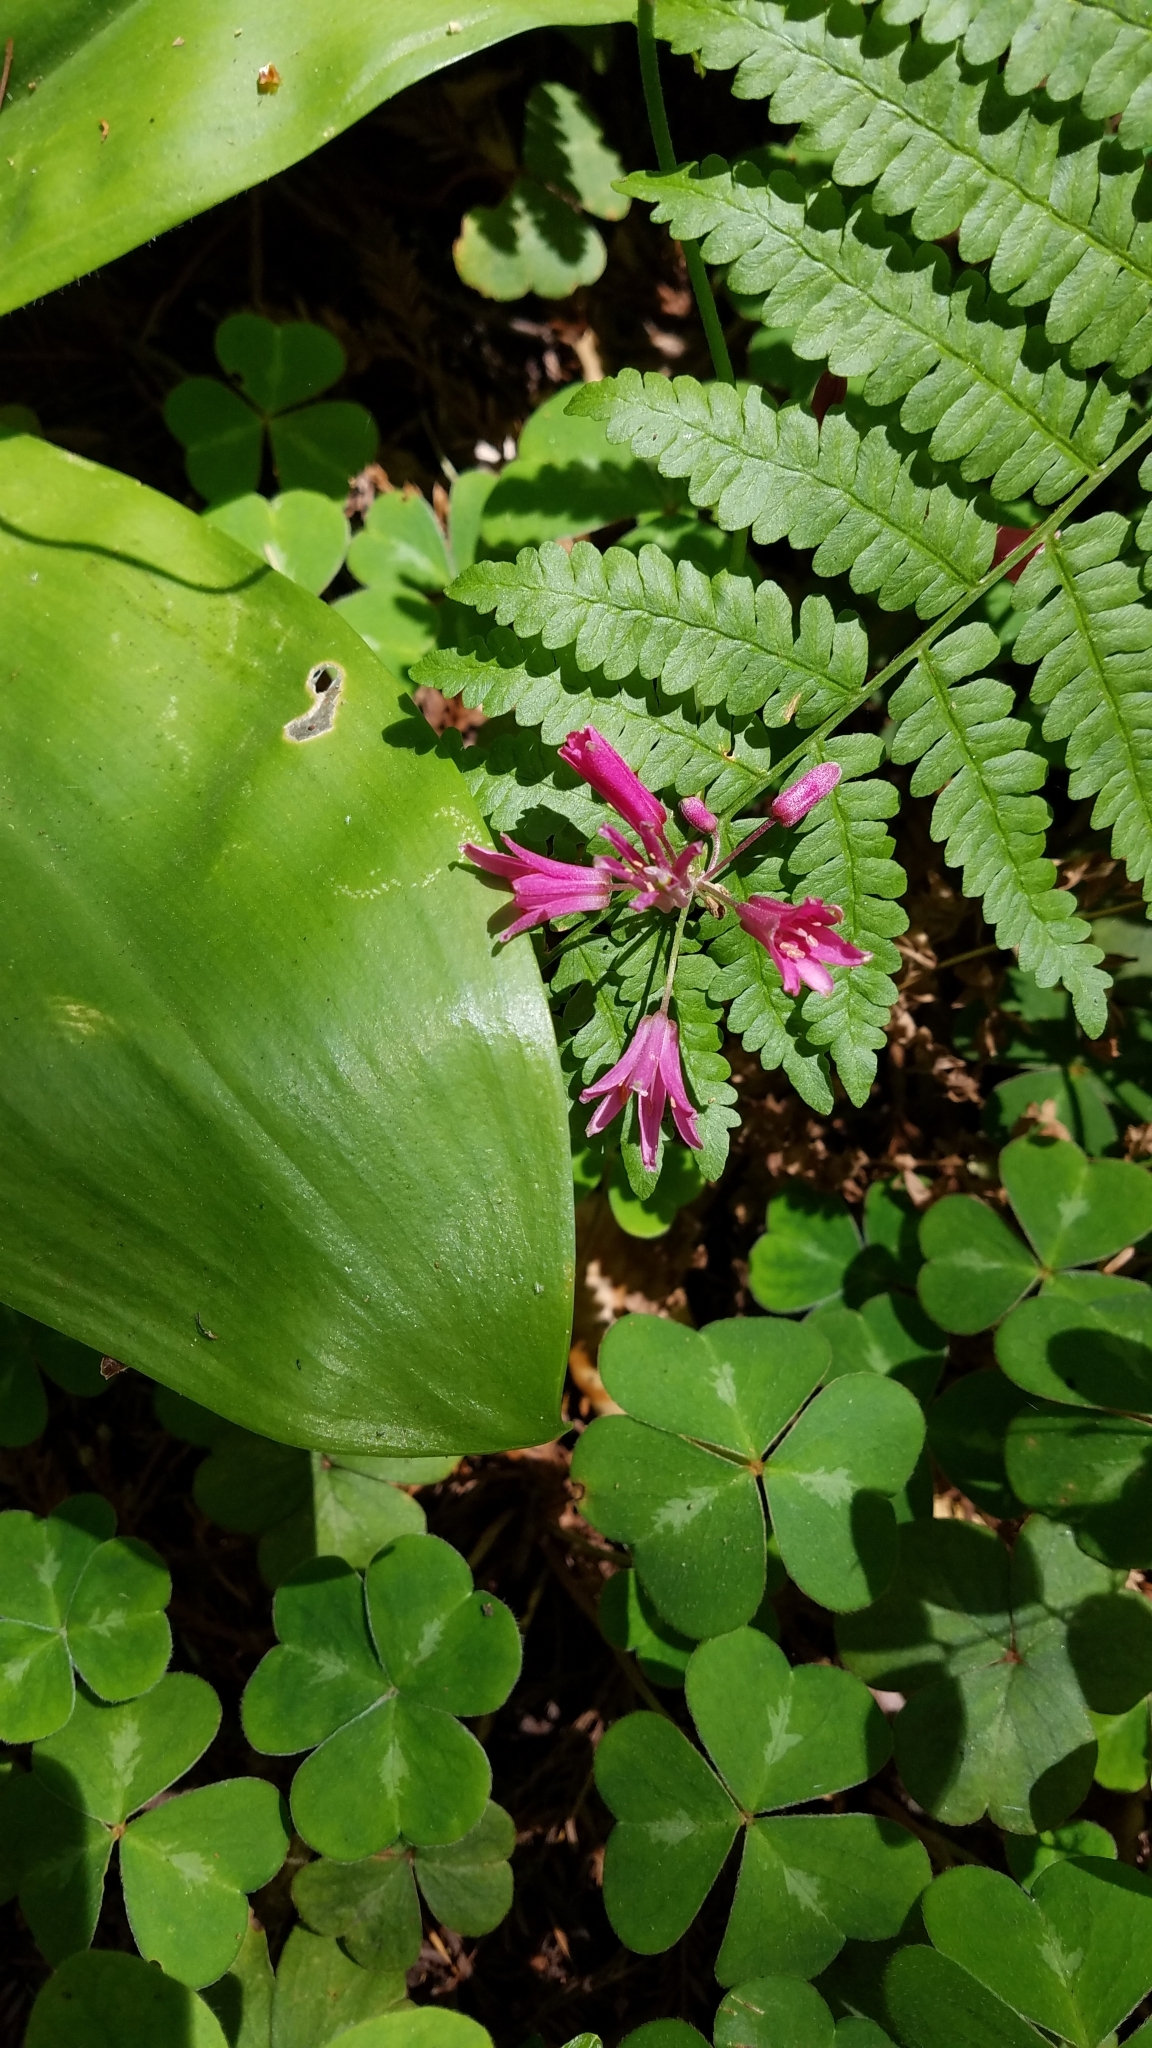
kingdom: Plantae
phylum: Tracheophyta
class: Liliopsida
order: Liliales
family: Liliaceae
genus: Clintonia
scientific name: Clintonia andrewsiana
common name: Red clintonia
